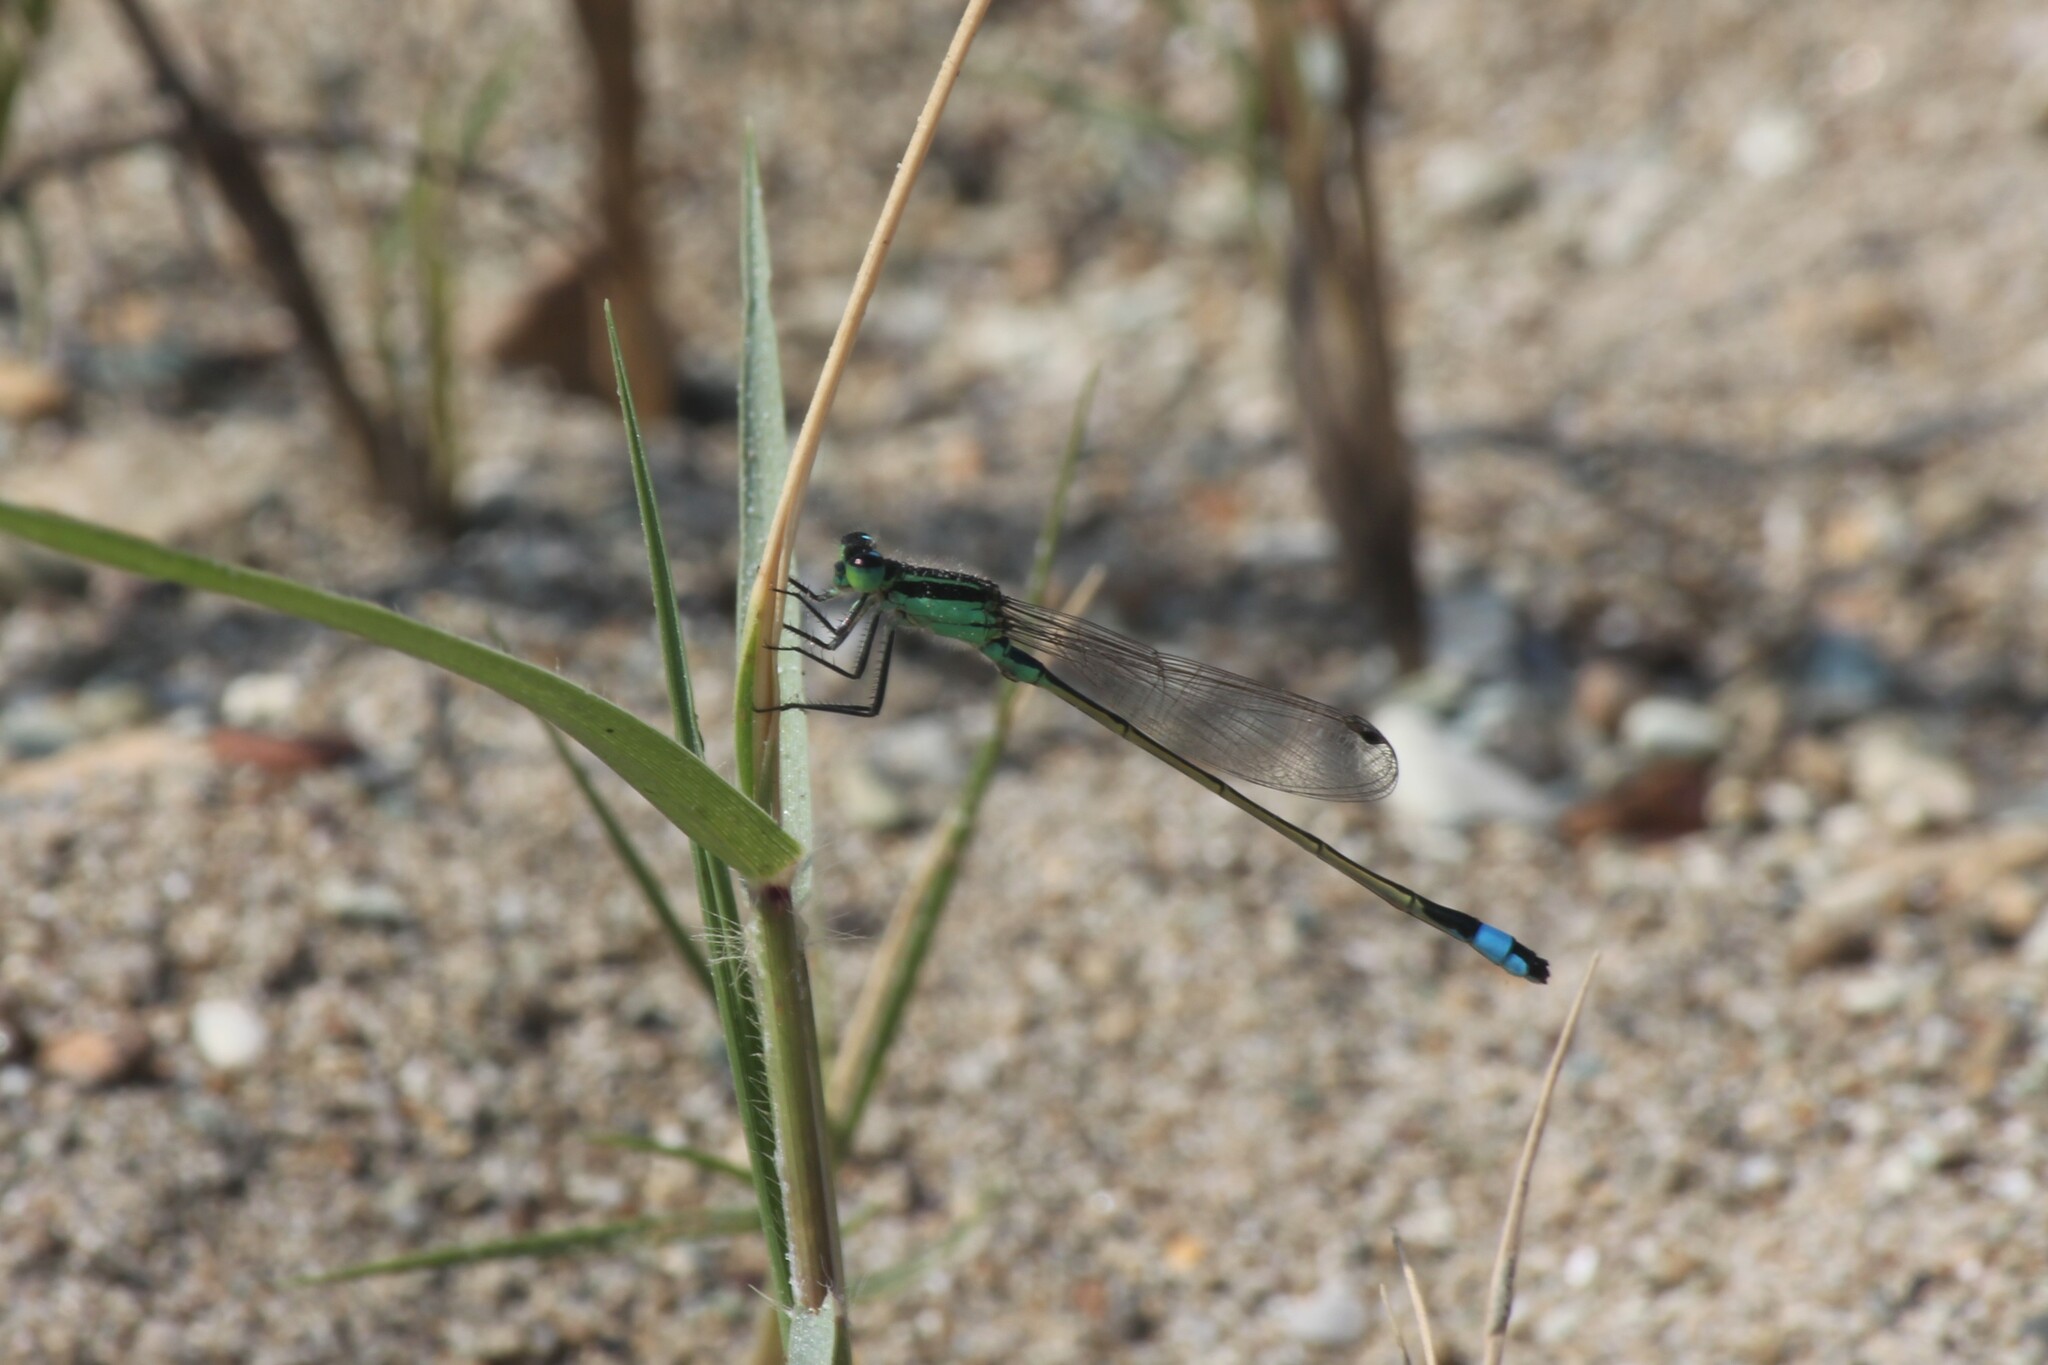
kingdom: Animalia
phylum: Arthropoda
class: Insecta
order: Odonata
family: Coenagrionidae
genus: Ischnura
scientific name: Ischnura ramburii
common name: Rambur's forktail
